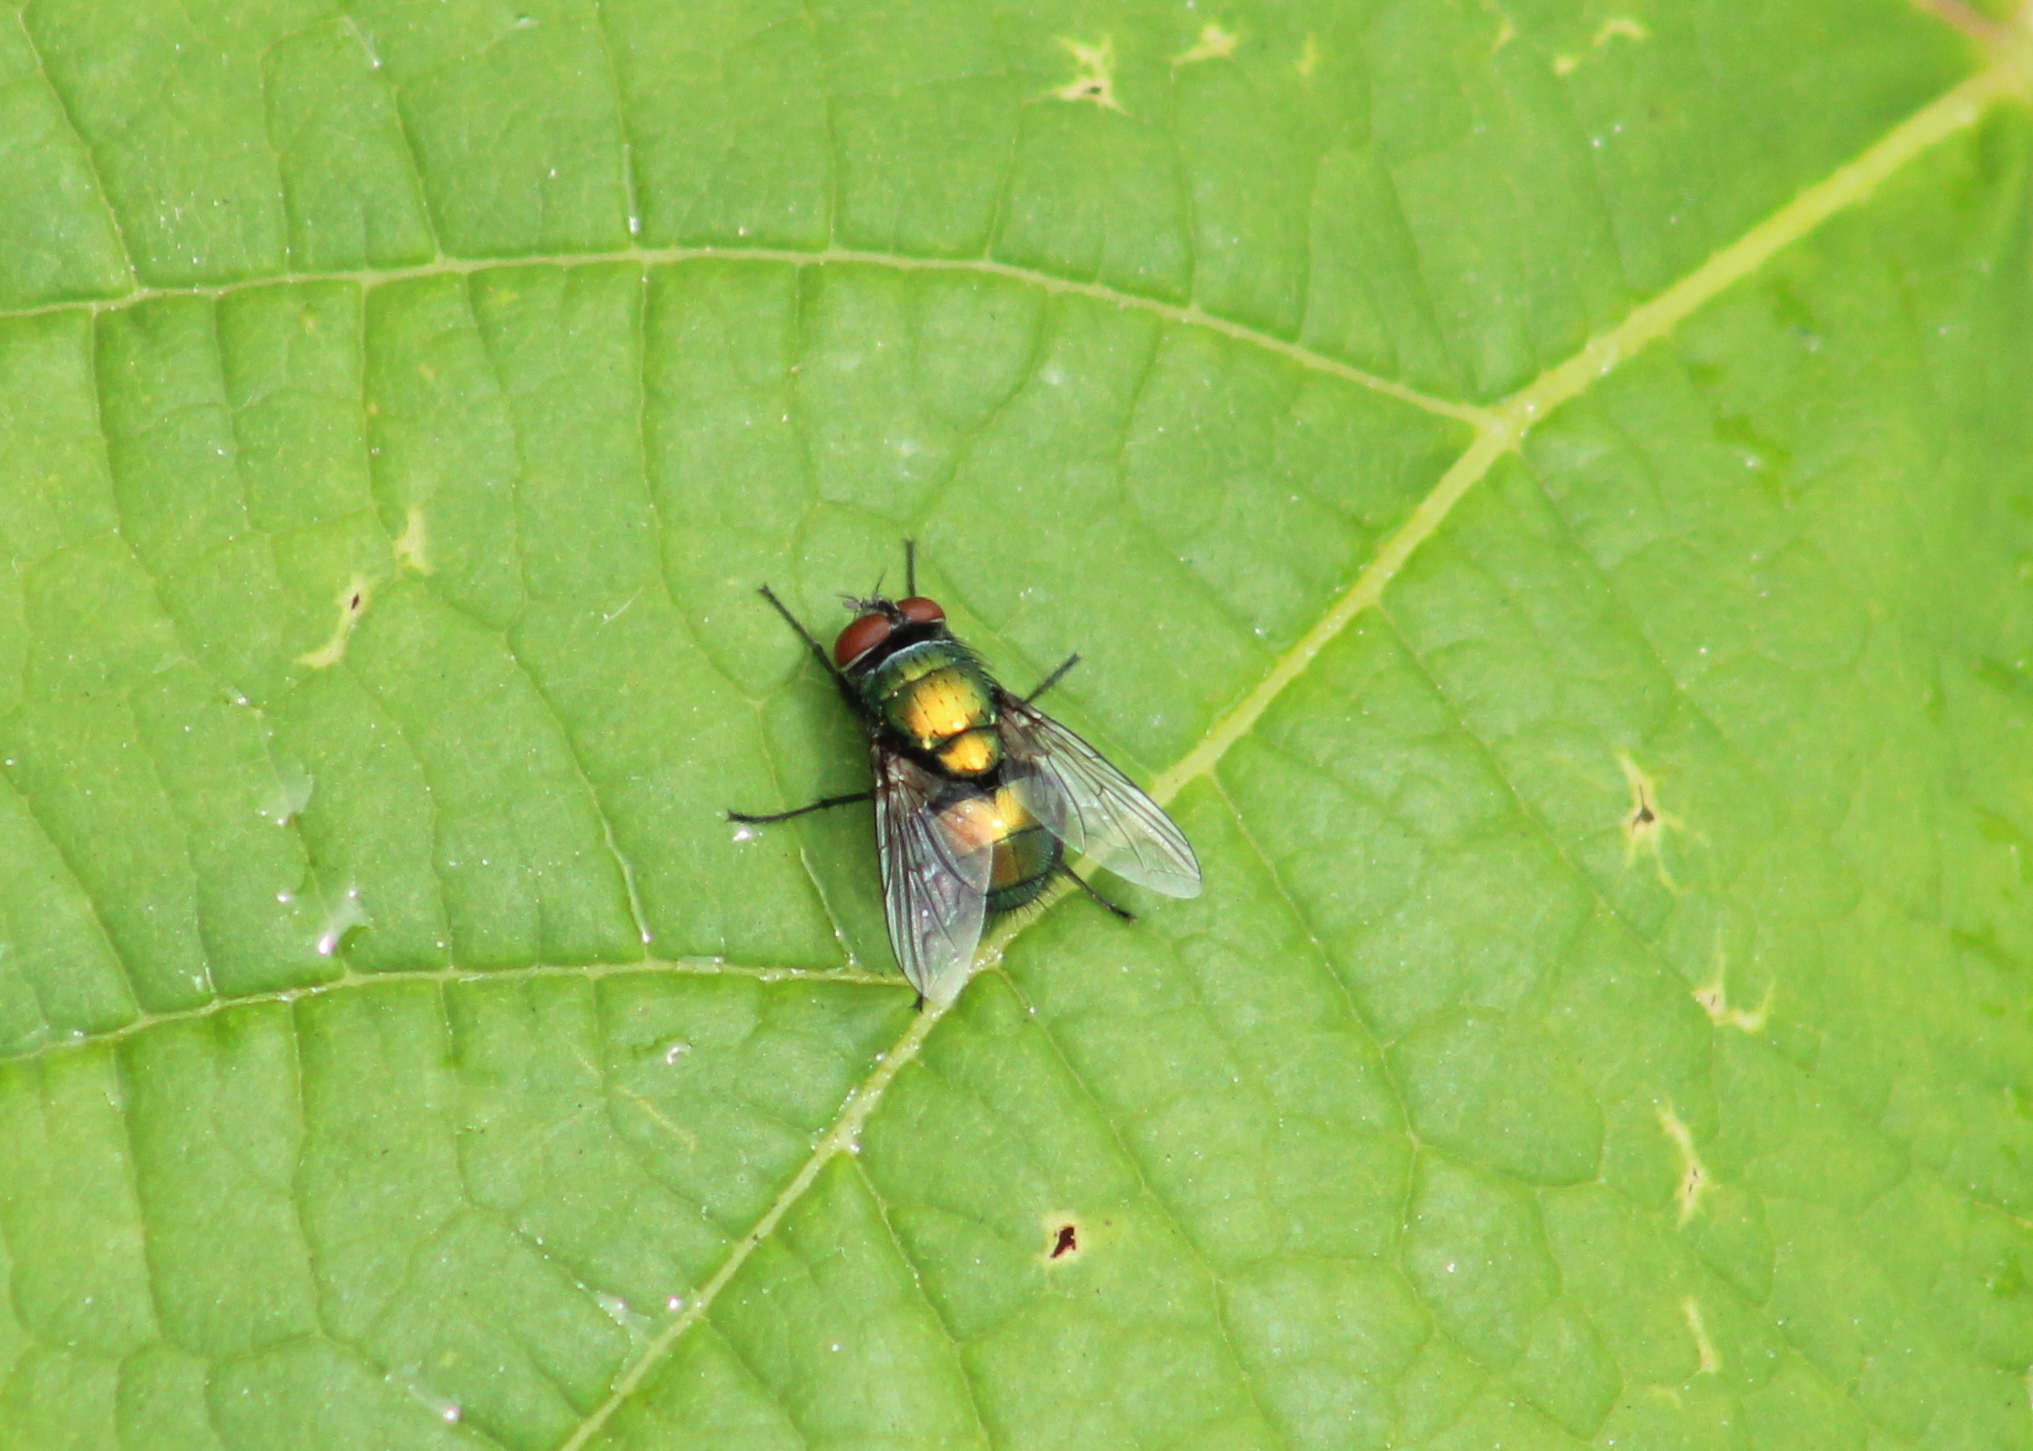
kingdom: Animalia
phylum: Arthropoda
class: Insecta
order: Diptera
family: Calliphoridae
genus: Lucilia
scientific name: Lucilia sericata
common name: Blow fly
